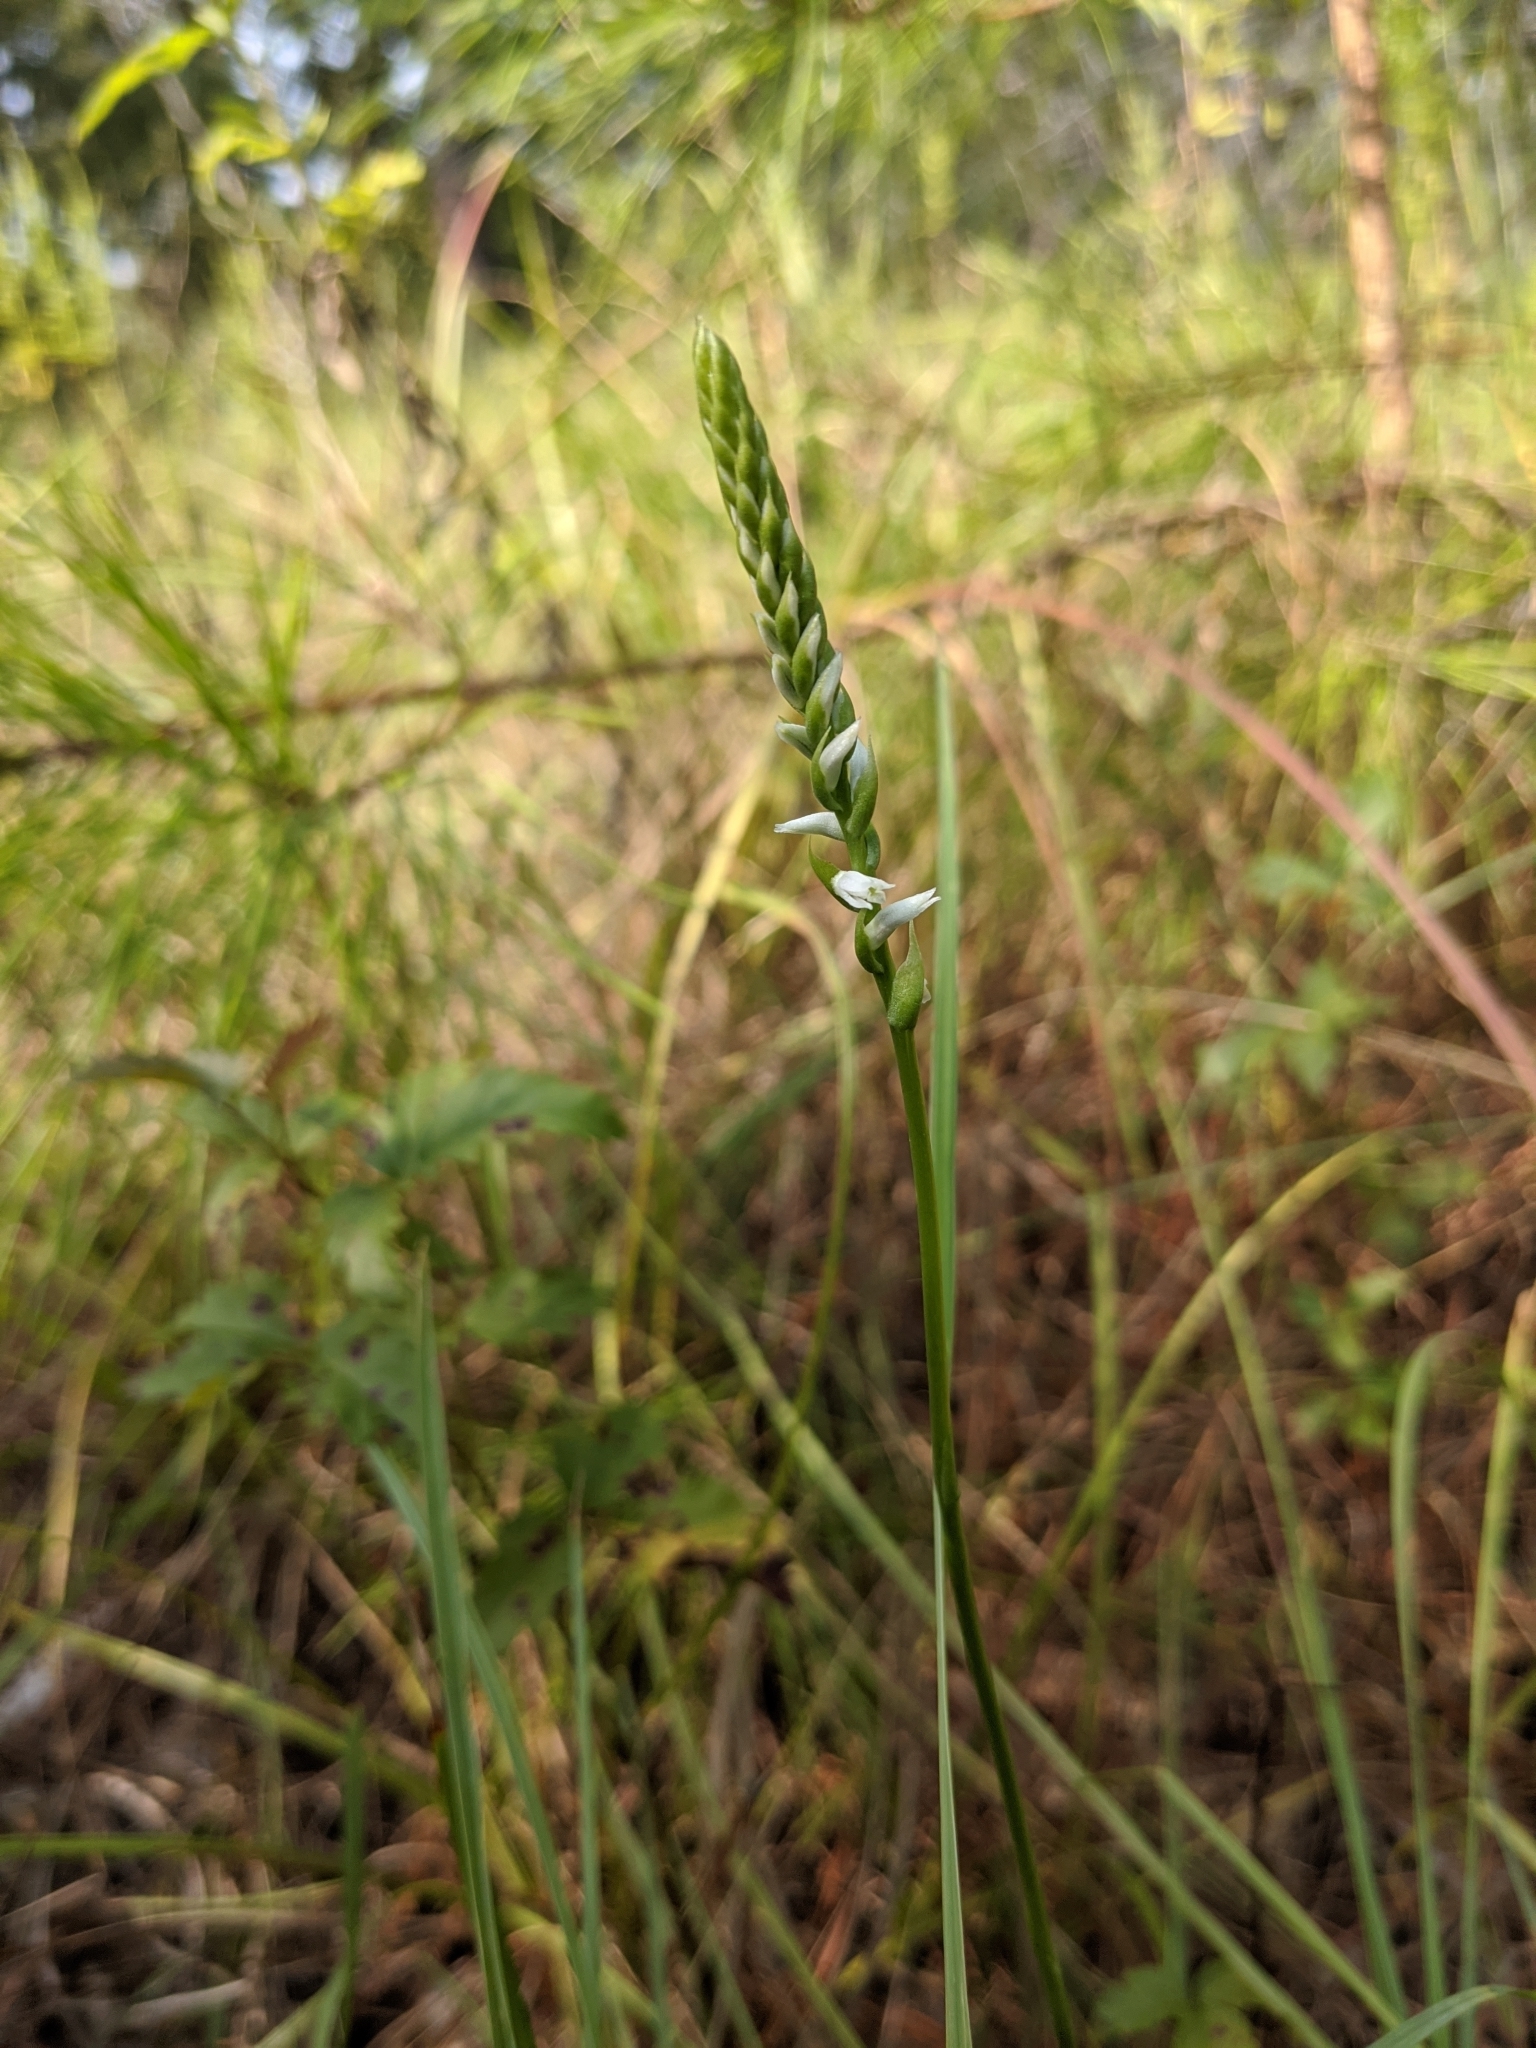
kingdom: Plantae
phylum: Tracheophyta
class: Liliopsida
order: Asparagales
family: Orchidaceae
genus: Spiranthes
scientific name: Spiranthes lacera
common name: Northern slender ladies'-tresses
